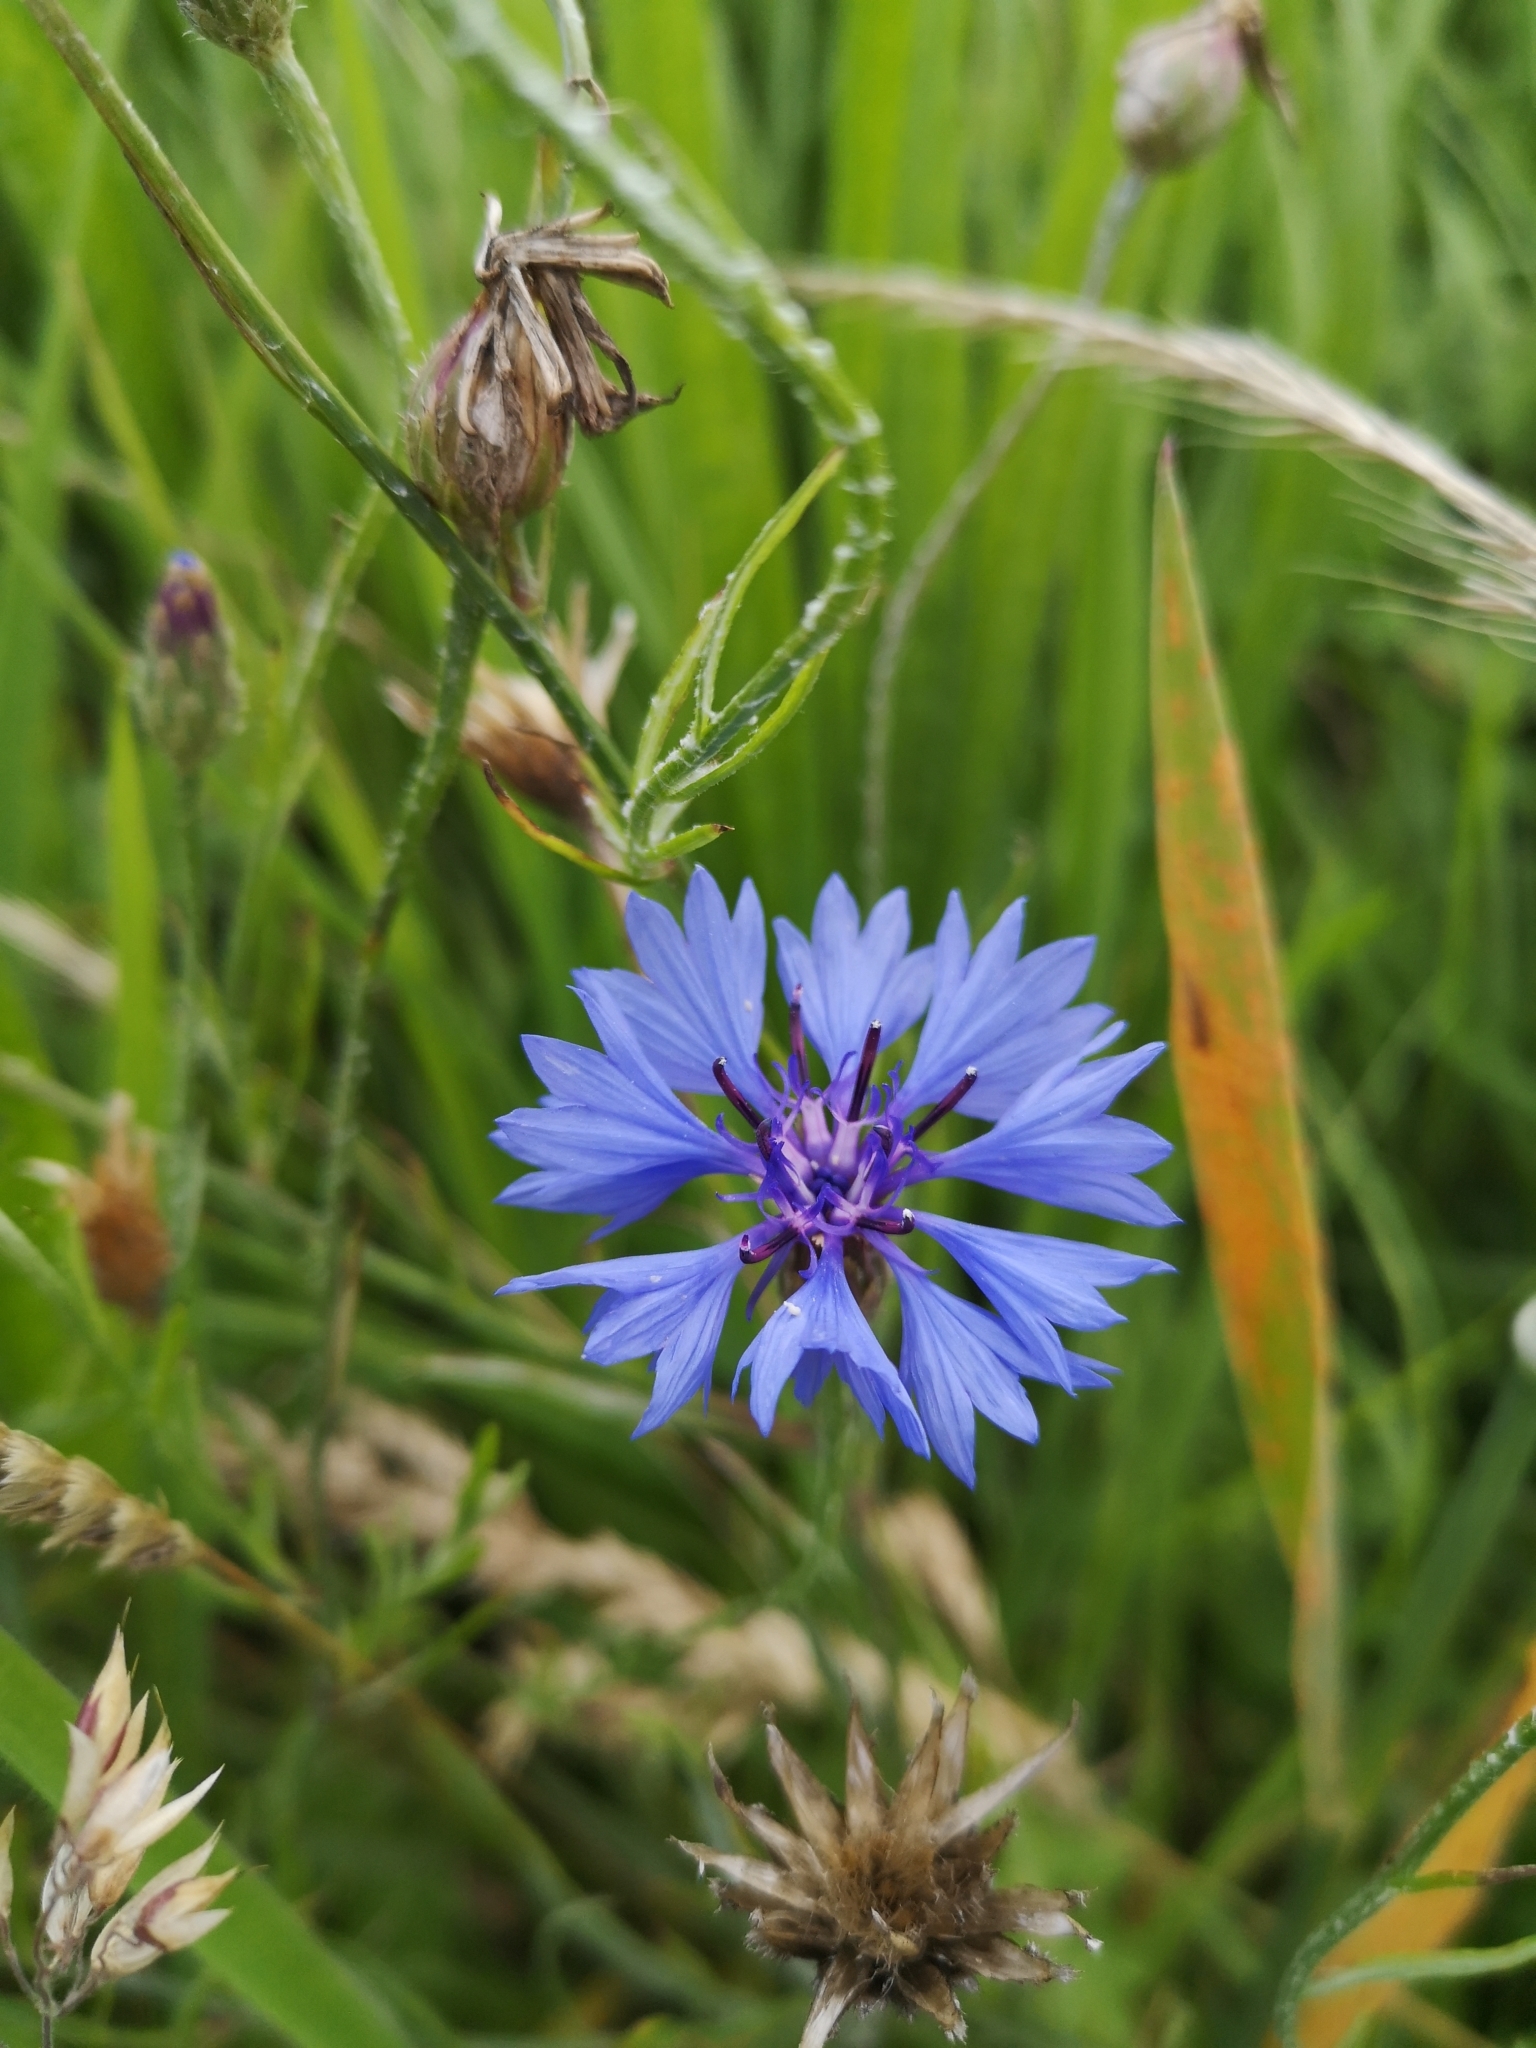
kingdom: Plantae
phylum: Tracheophyta
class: Magnoliopsida
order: Asterales
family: Asteraceae
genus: Centaurea
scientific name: Centaurea cyanus
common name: Cornflower
